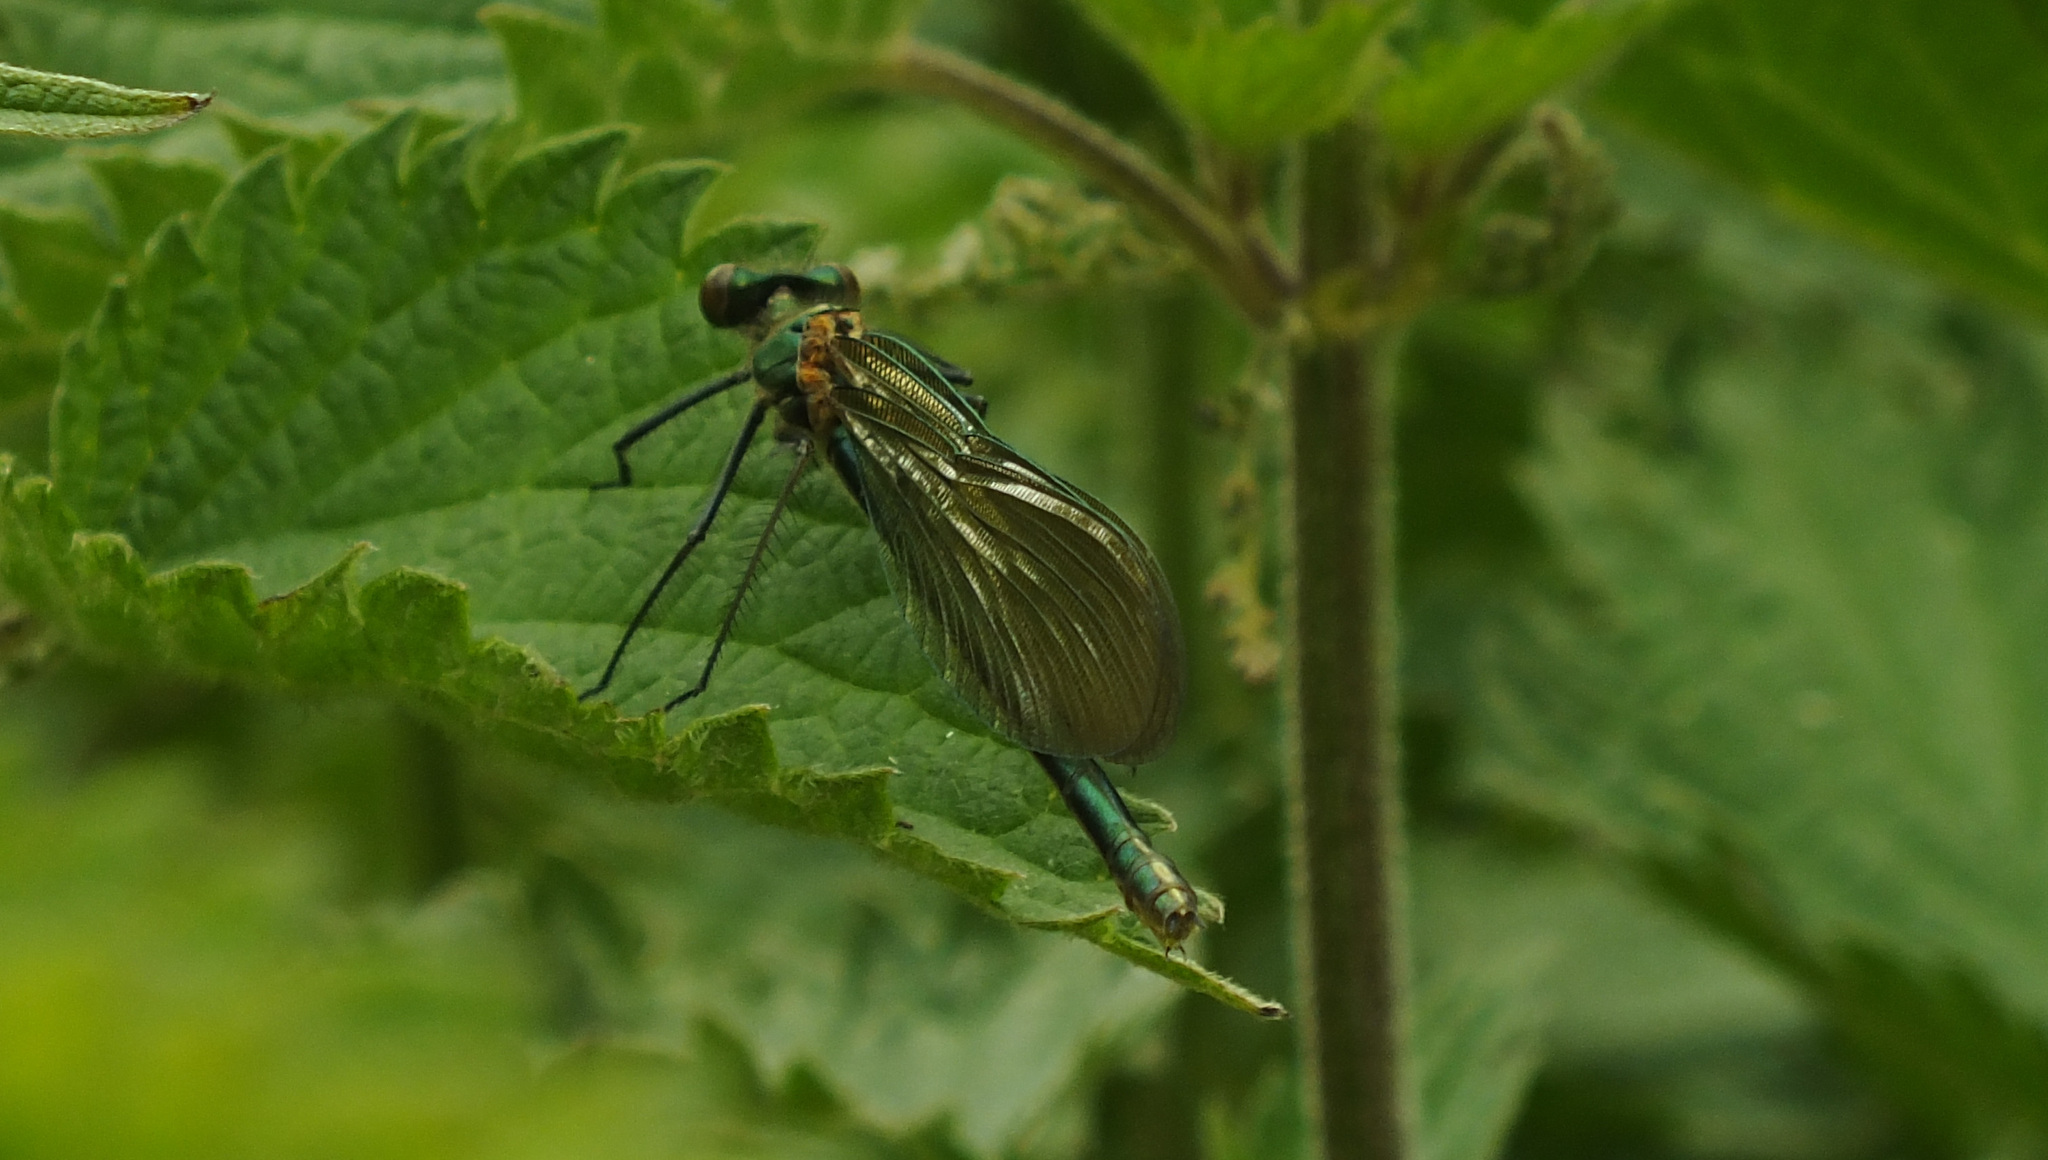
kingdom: Animalia
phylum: Arthropoda
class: Insecta
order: Odonata
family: Calopterygidae
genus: Calopteryx
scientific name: Calopteryx splendens
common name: Banded demoiselle
